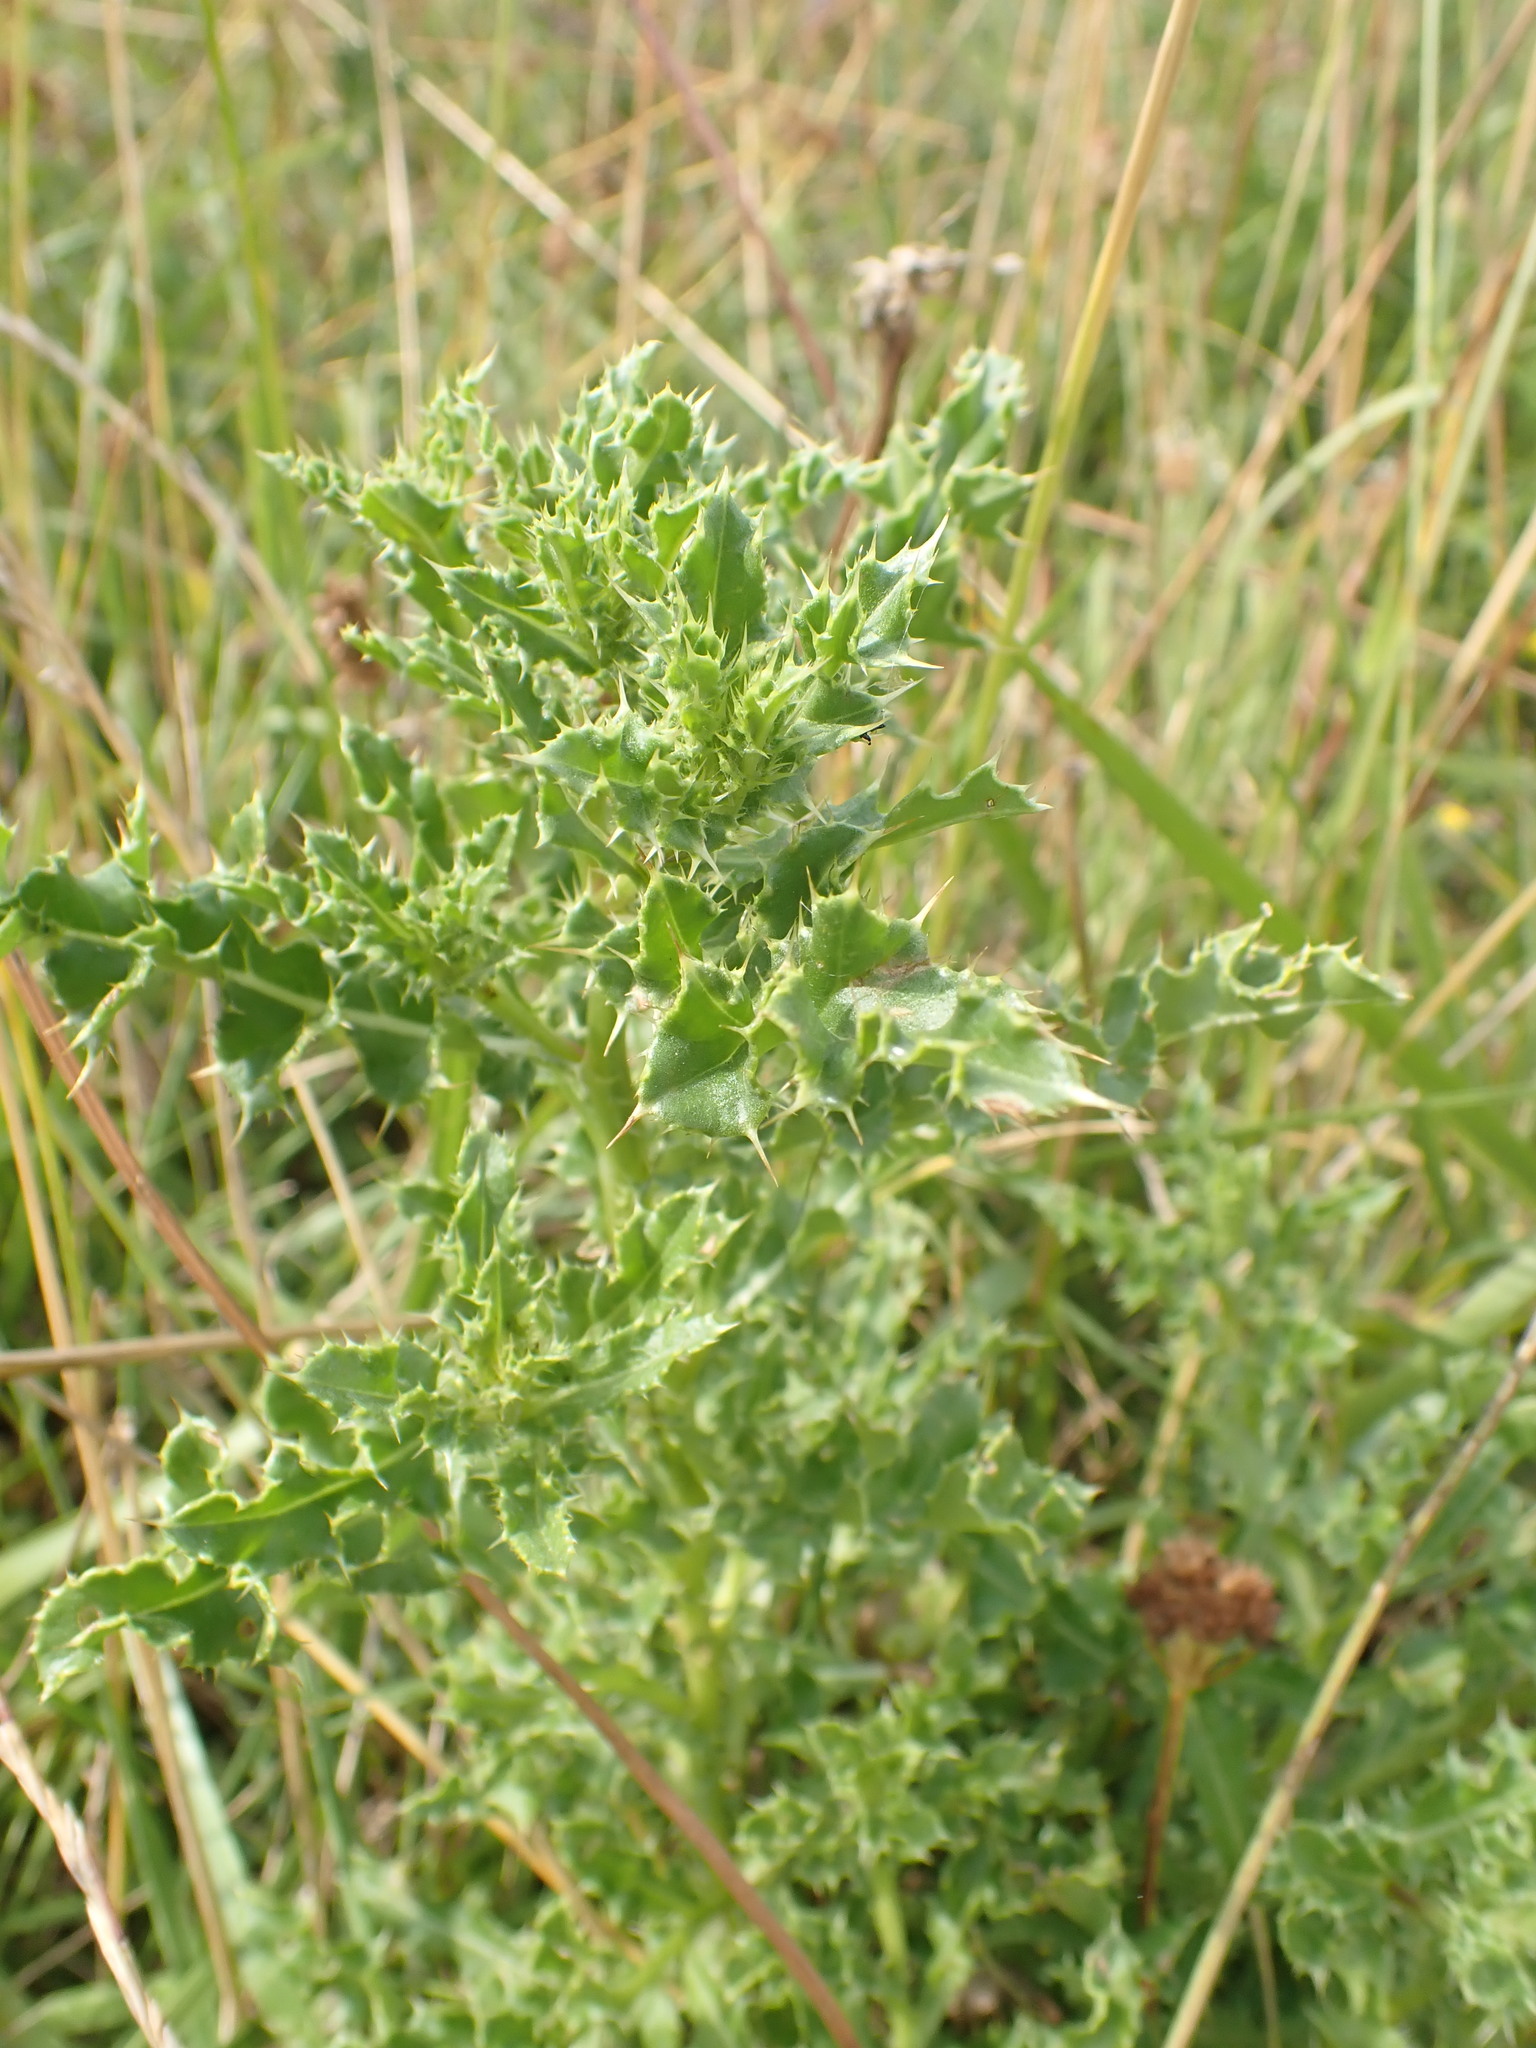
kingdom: Plantae
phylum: Tracheophyta
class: Magnoliopsida
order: Asterales
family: Asteraceae
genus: Cirsium
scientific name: Cirsium arvense
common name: Creeping thistle
